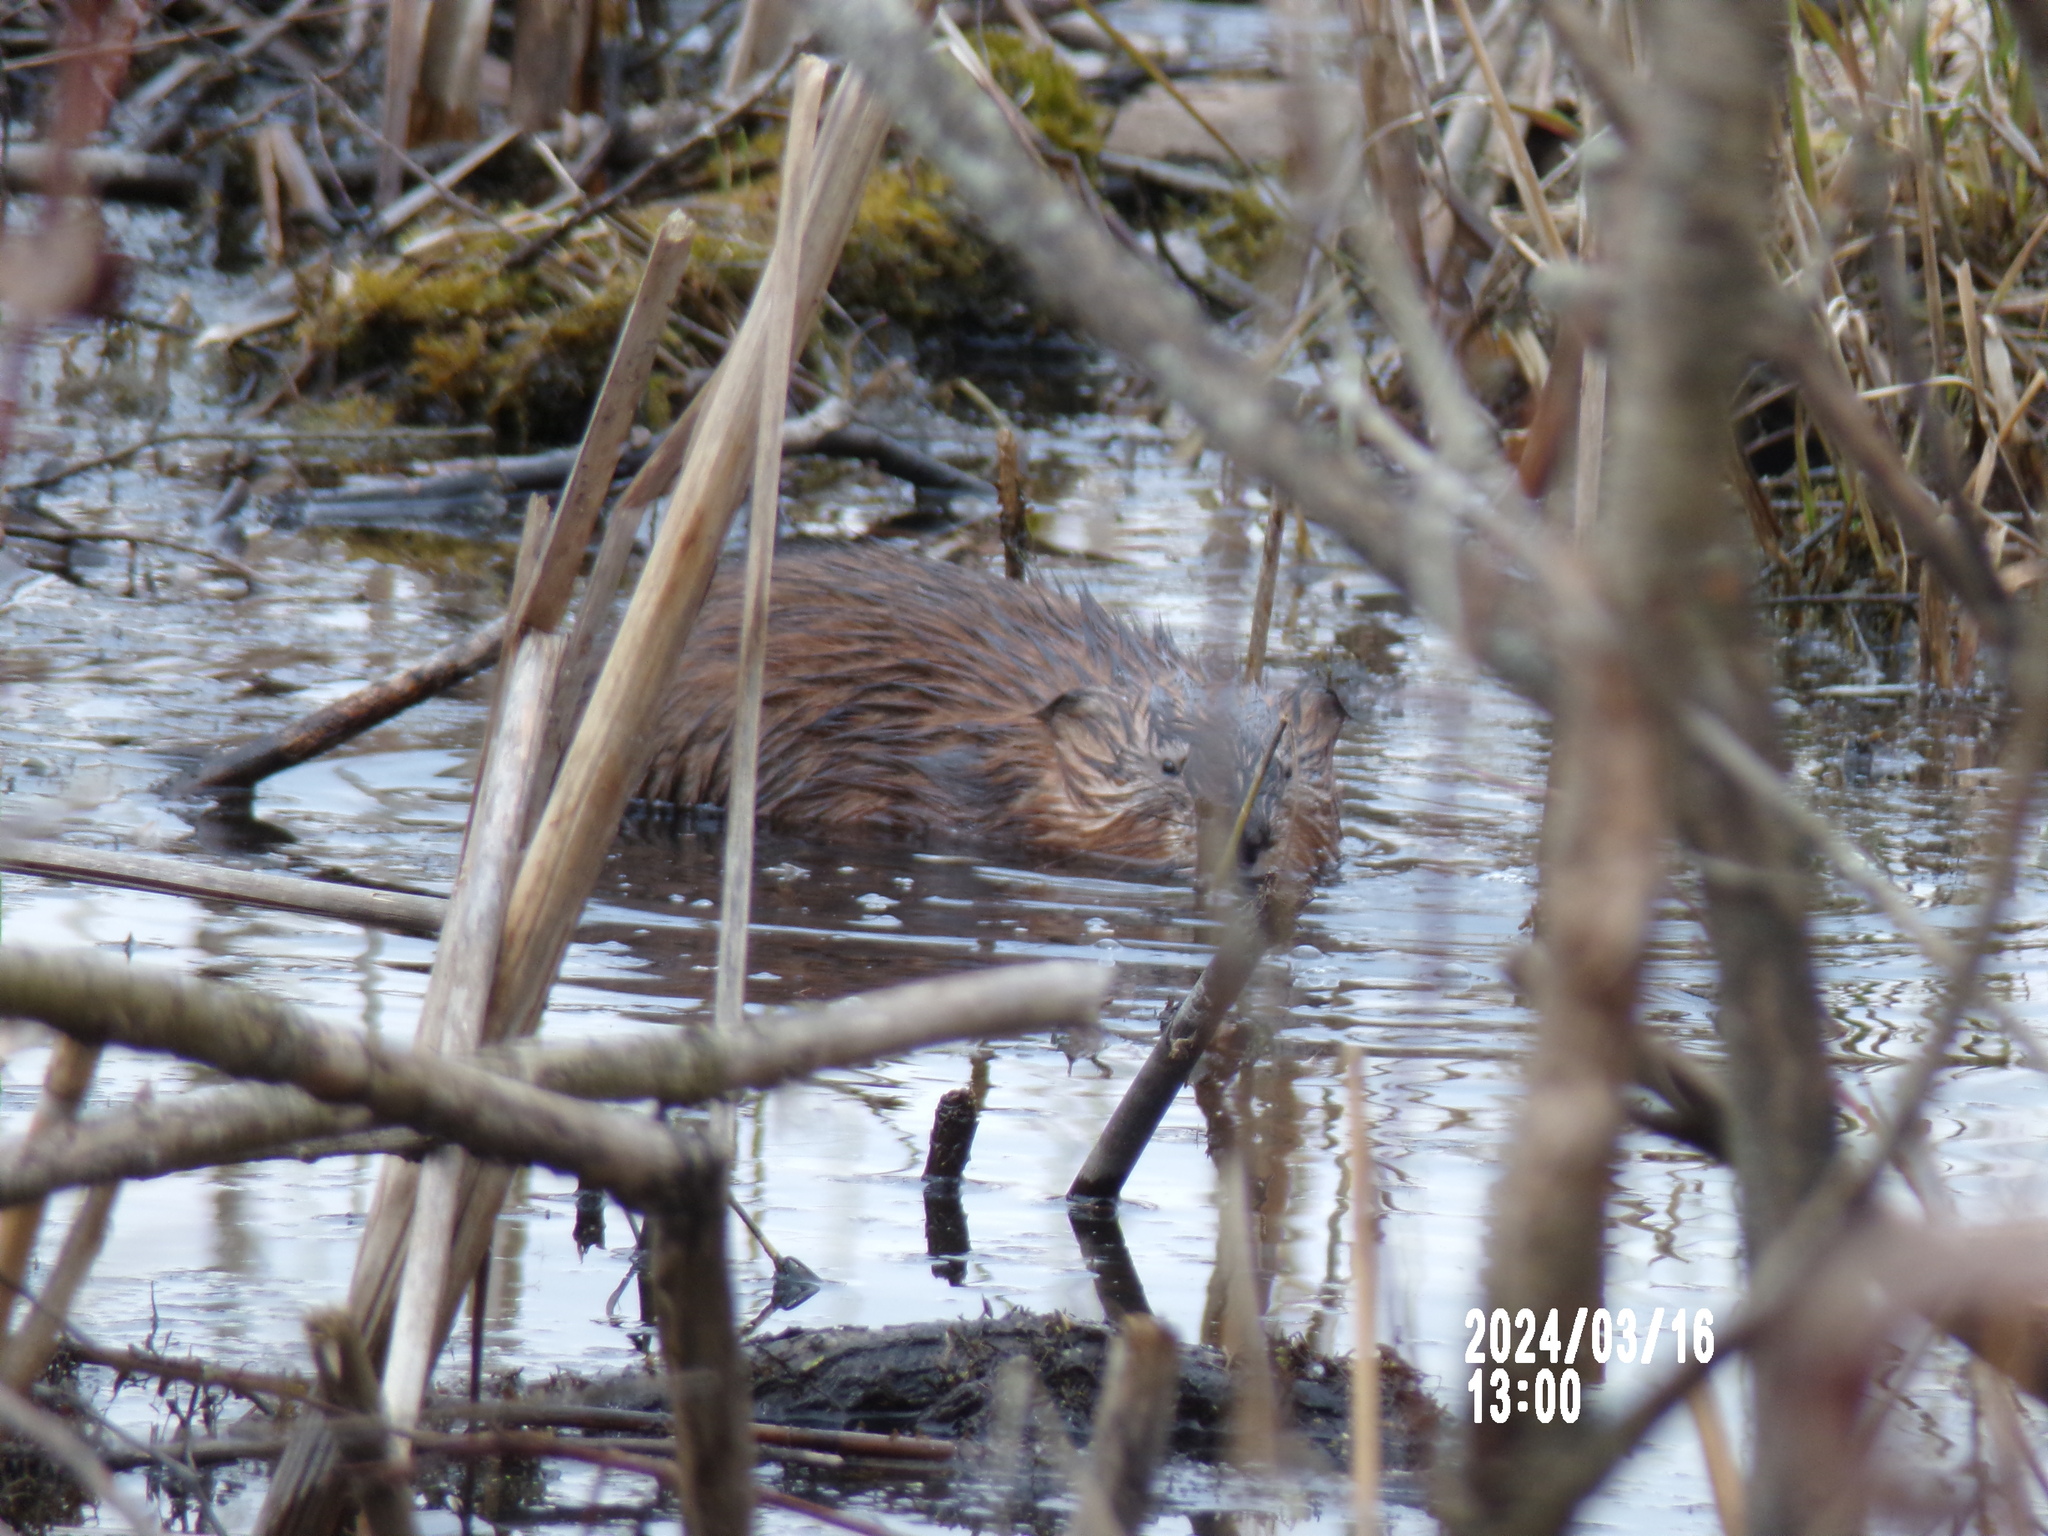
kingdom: Animalia
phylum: Chordata
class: Mammalia
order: Rodentia
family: Cricetidae
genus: Ondatra
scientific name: Ondatra zibethicus
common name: Muskrat
